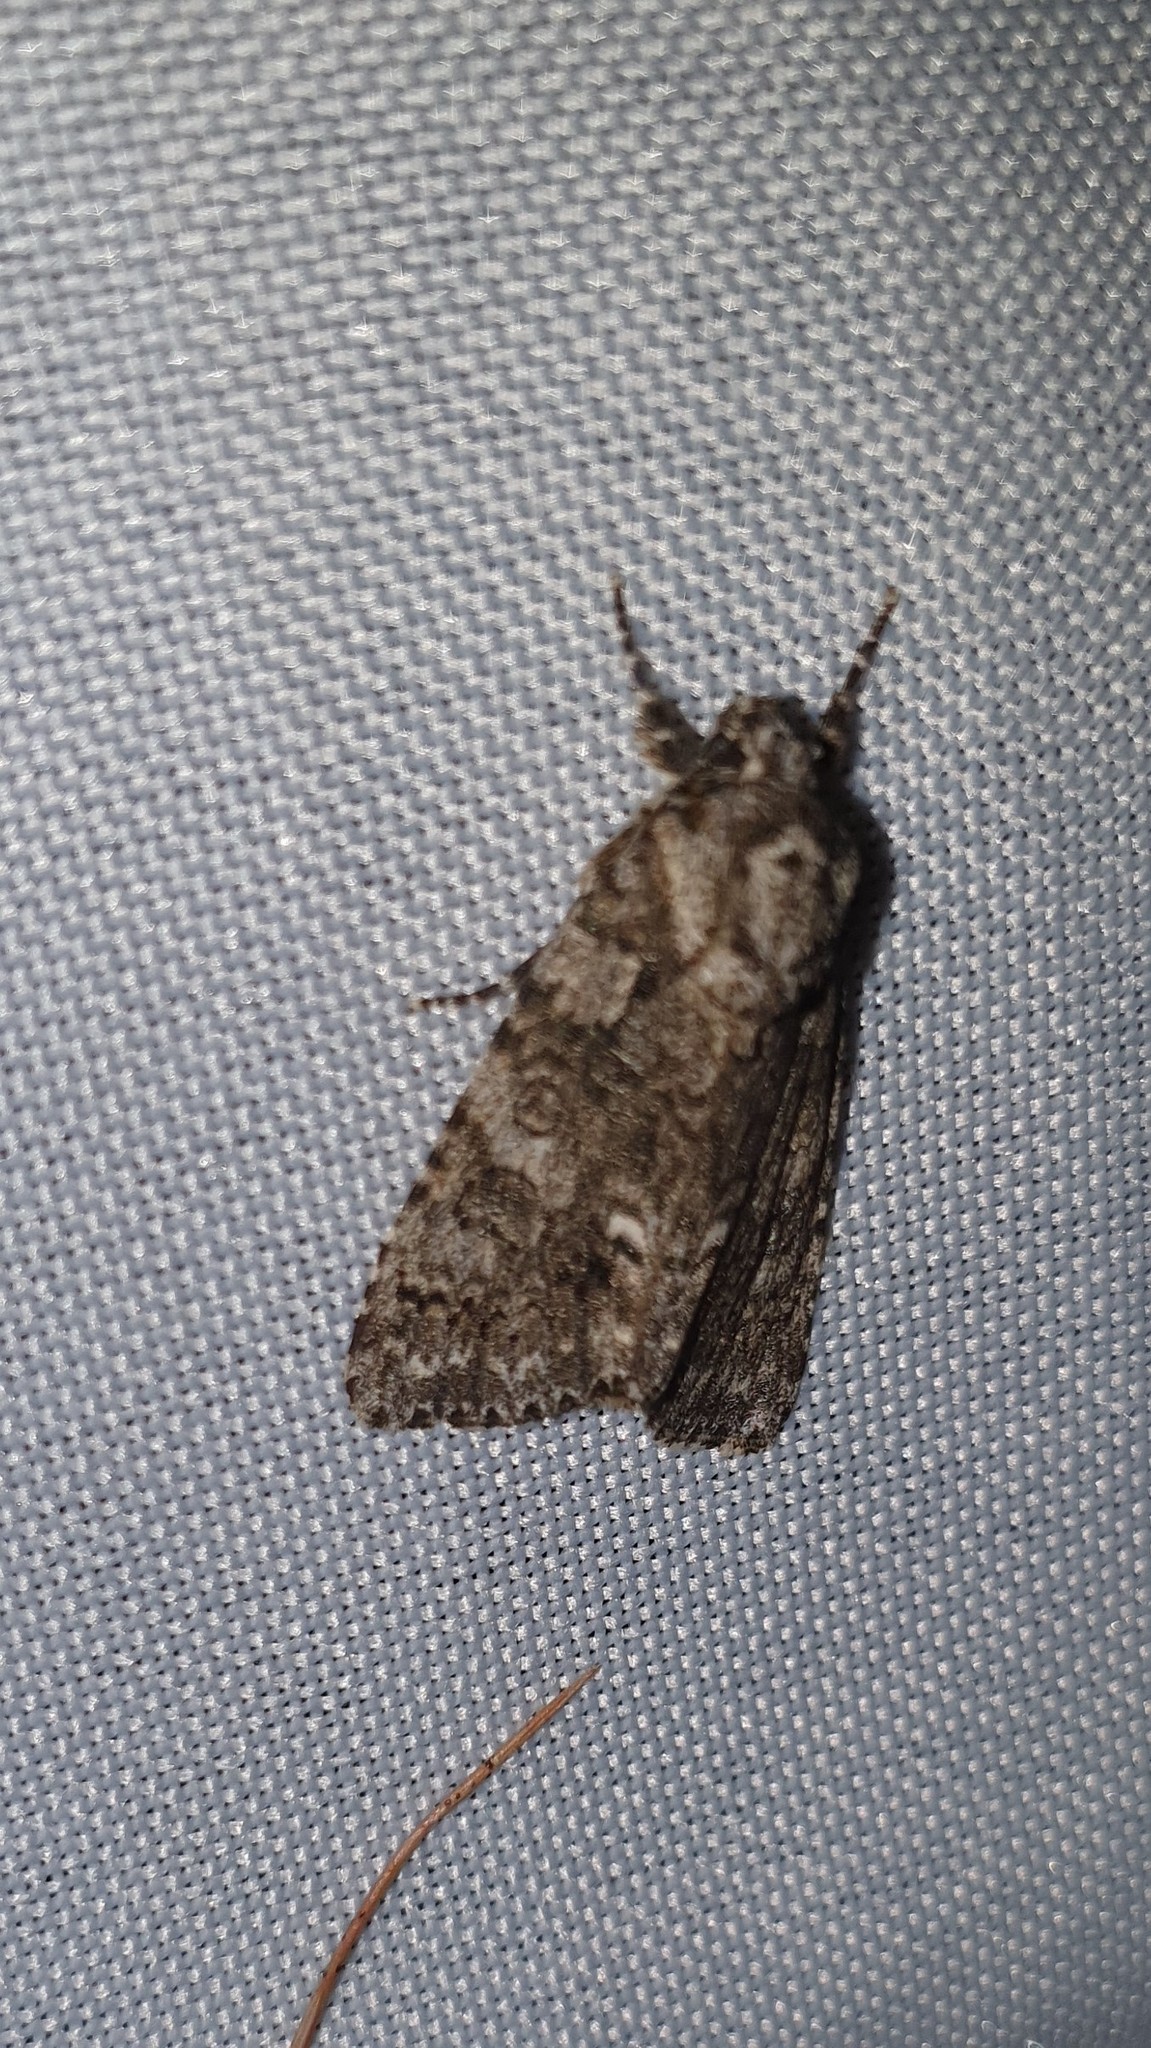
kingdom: Animalia
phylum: Arthropoda
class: Insecta
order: Lepidoptera
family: Noctuidae
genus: Acronicta
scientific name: Acronicta rumicis
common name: Knot grass
